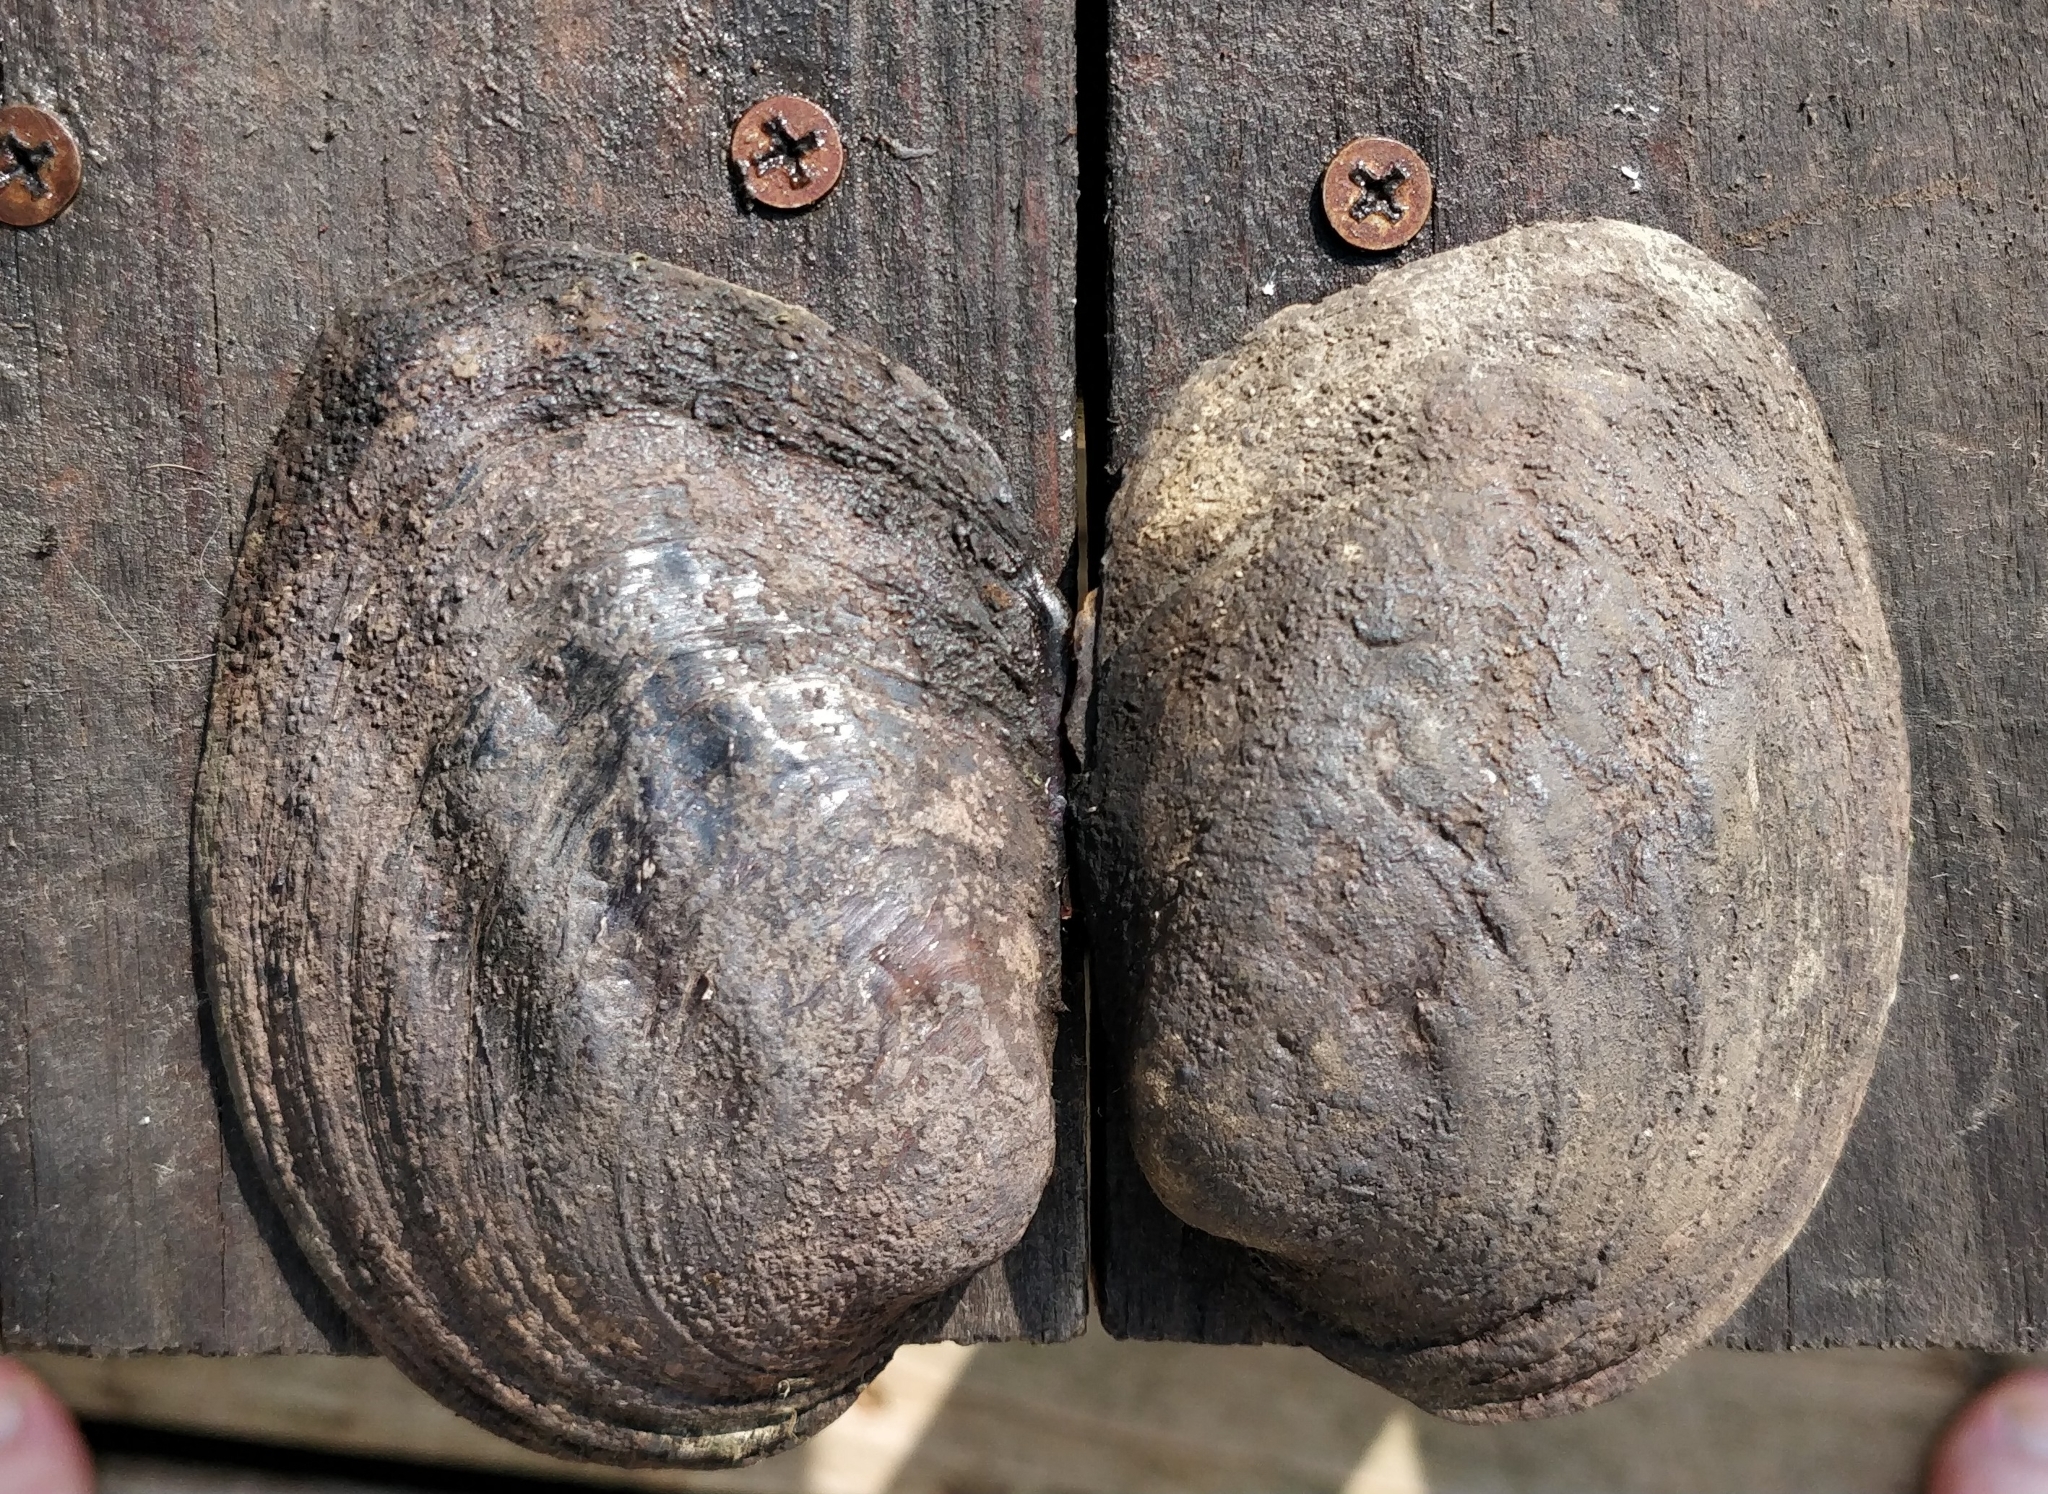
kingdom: Animalia
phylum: Mollusca
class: Bivalvia
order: Unionida
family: Unionidae
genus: Amblema
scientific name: Amblema plicata
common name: Threeridge
